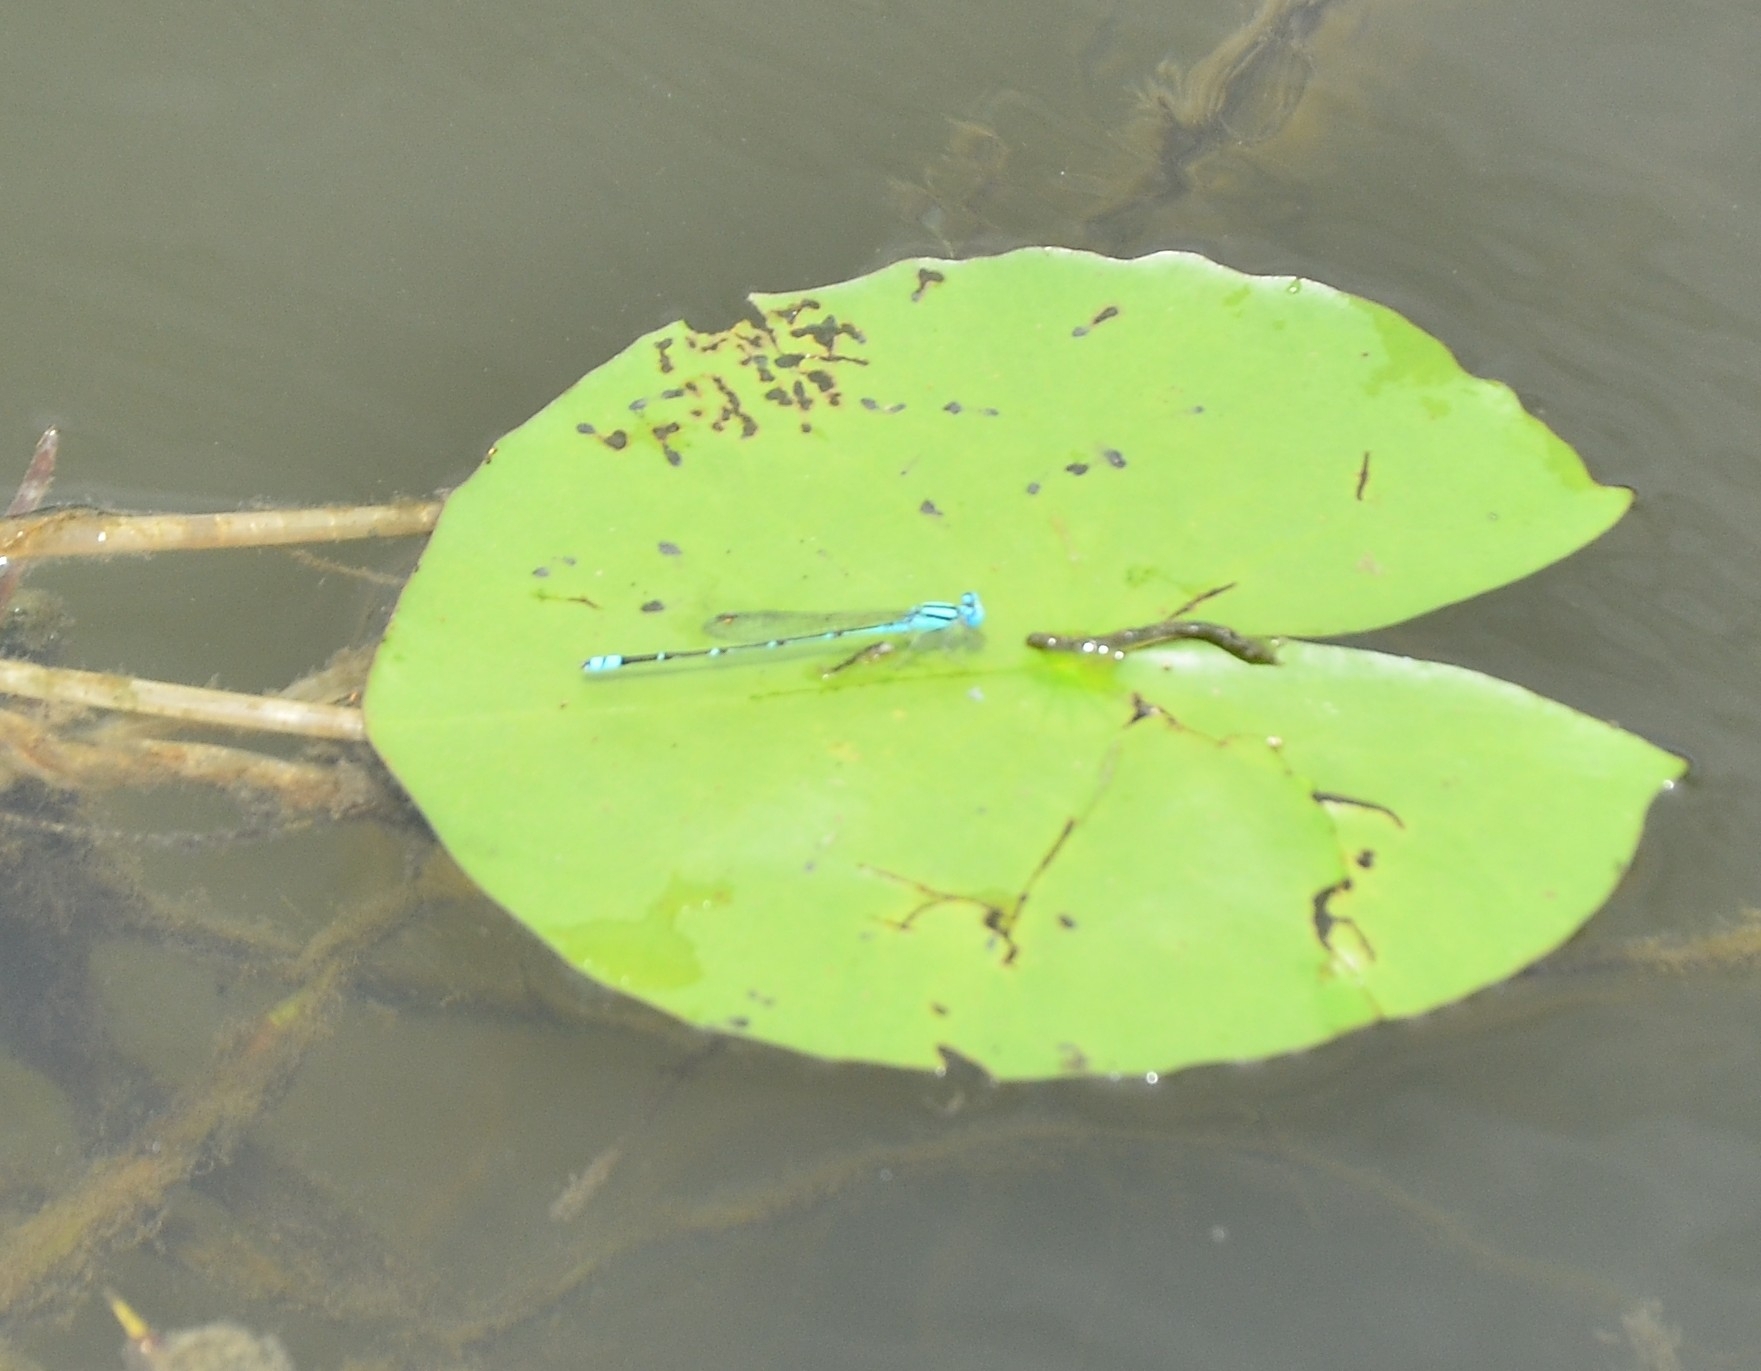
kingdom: Animalia
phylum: Arthropoda
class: Insecta
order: Odonata
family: Coenagrionidae
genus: Pseudagrion
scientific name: Pseudagrion microcephalum
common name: Blue riverdamsel
